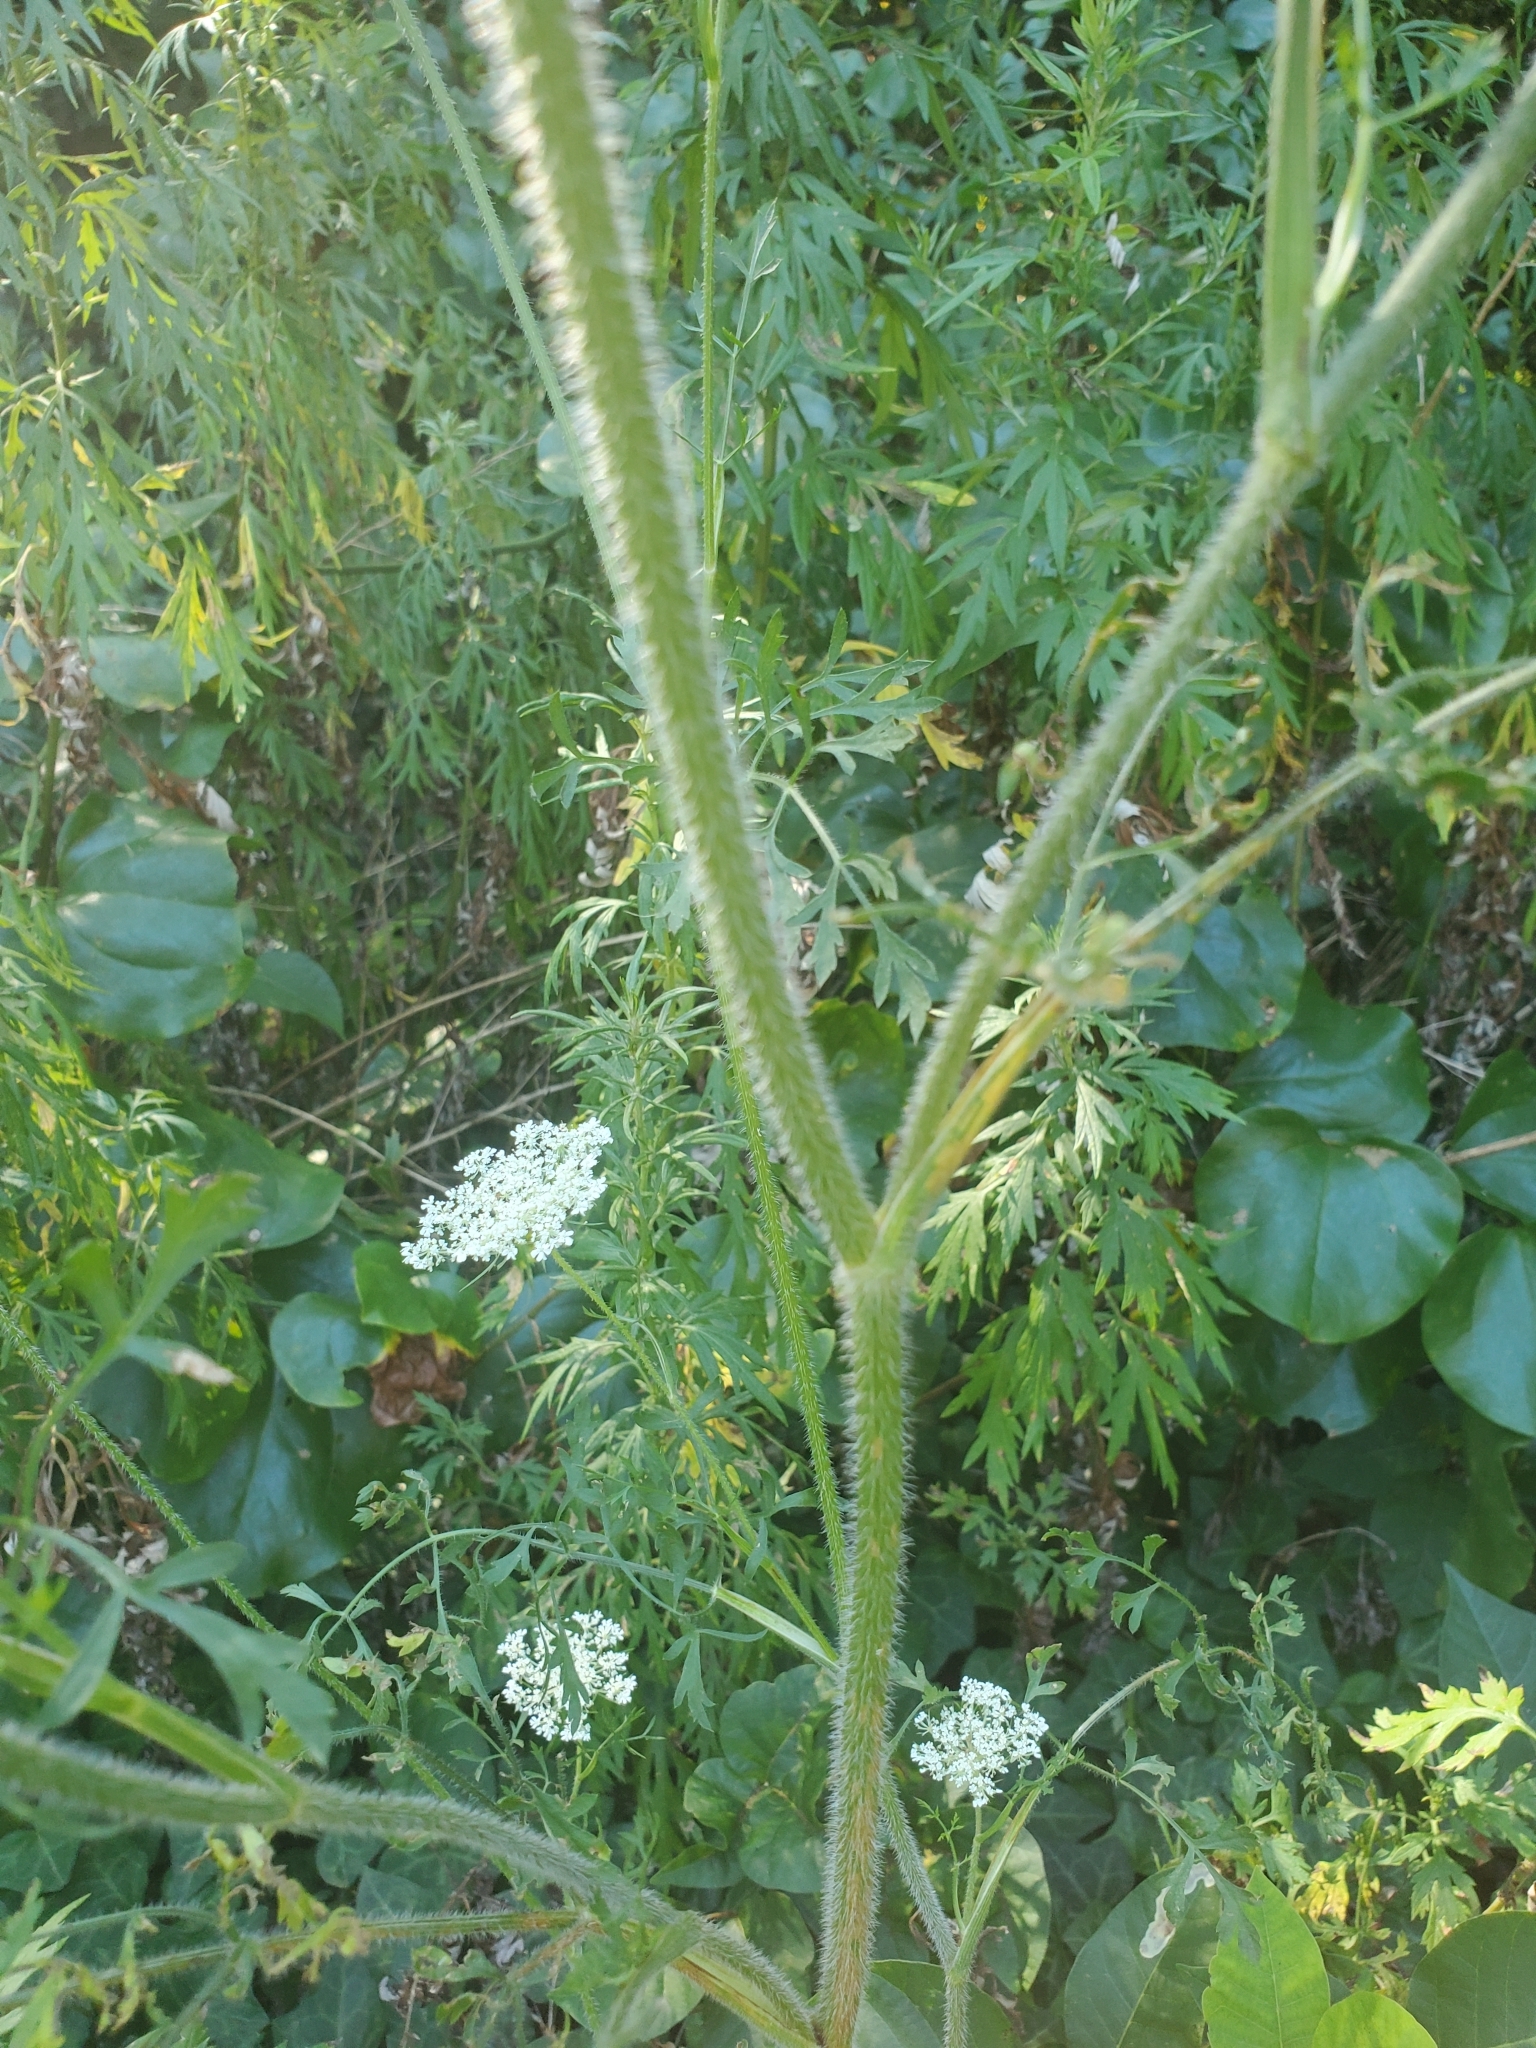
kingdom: Plantae
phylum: Tracheophyta
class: Magnoliopsida
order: Apiales
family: Apiaceae
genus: Daucus
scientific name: Daucus carota
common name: Wild carrot
